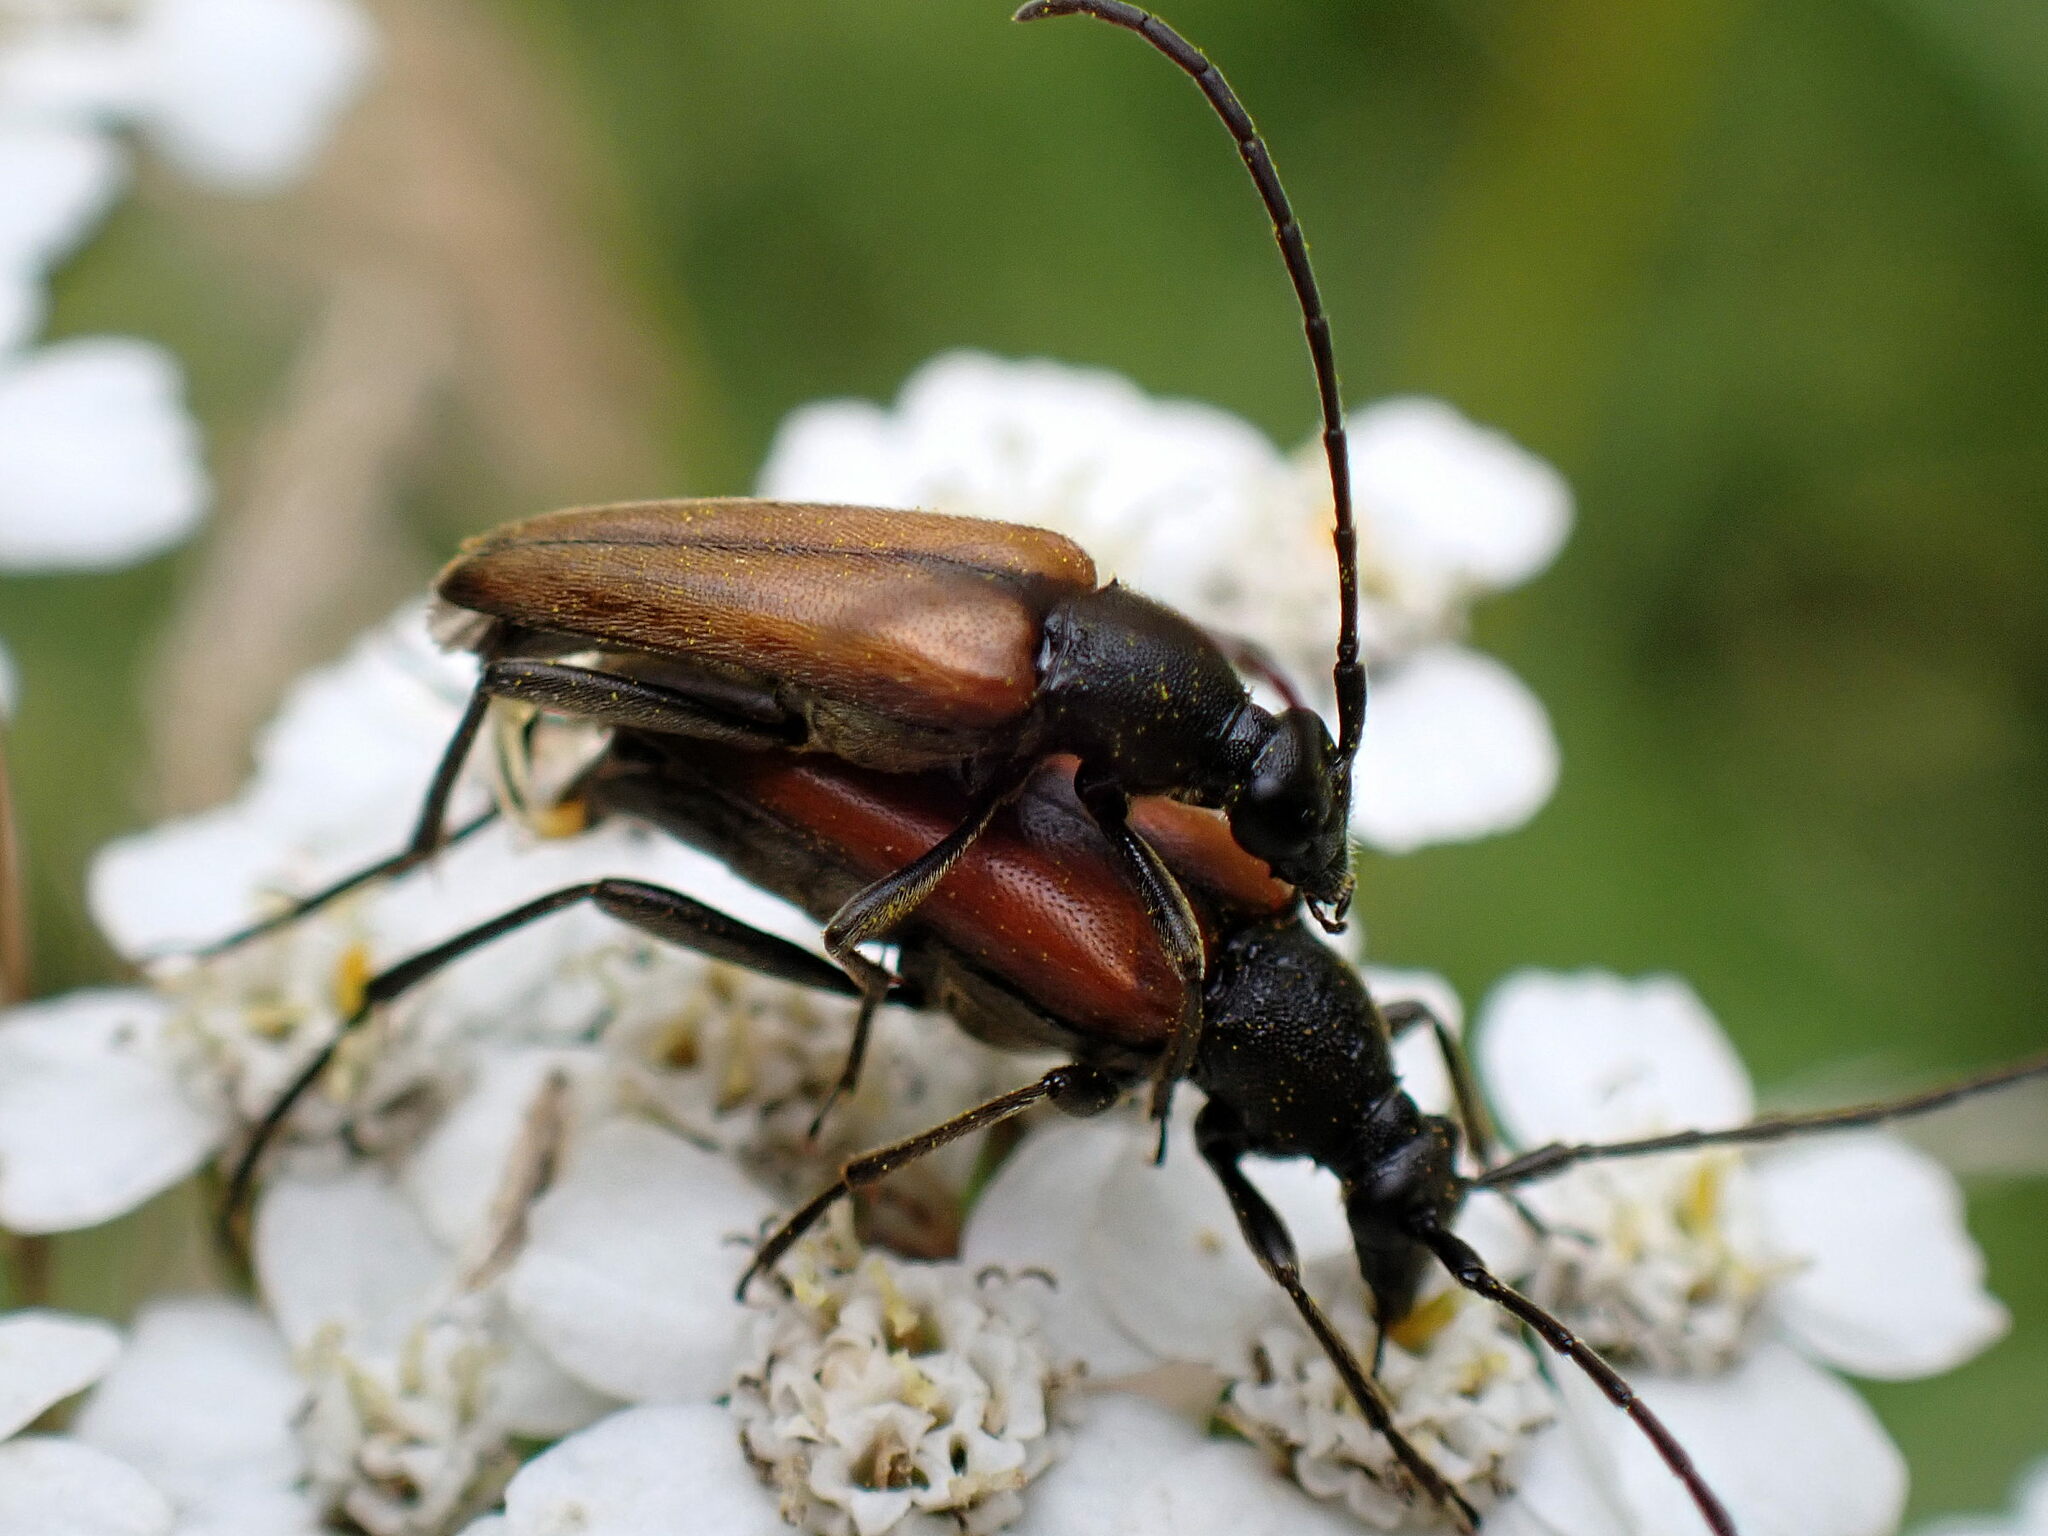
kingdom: Animalia
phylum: Arthropoda
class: Insecta
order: Coleoptera
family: Cerambycidae
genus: Stenurella
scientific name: Stenurella melanura
